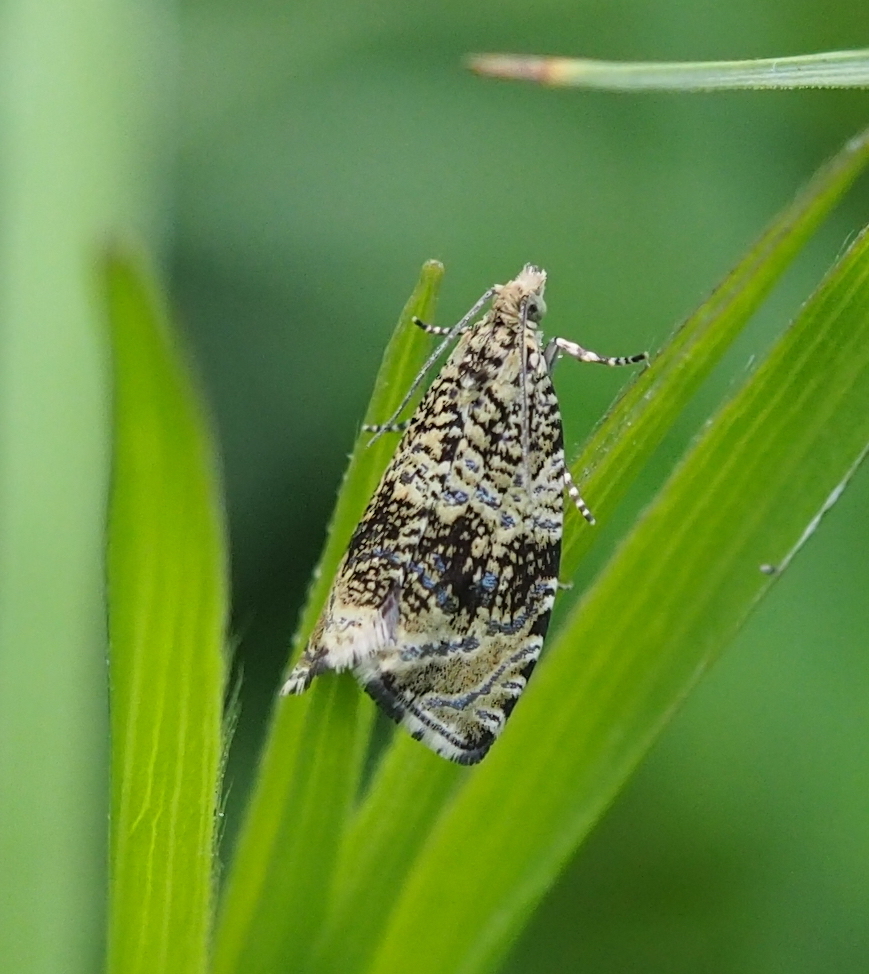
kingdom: Animalia
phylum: Arthropoda
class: Insecta
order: Lepidoptera
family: Tortricidae
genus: Syricoris
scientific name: Syricoris lacunana
